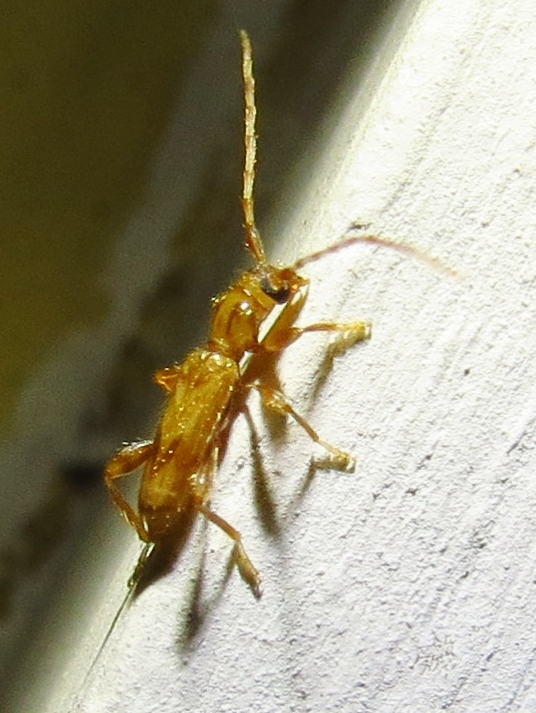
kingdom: Animalia
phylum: Arthropoda
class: Insecta
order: Coleoptera
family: Cerambycidae
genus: Obrium
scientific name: Obrium maculatum
